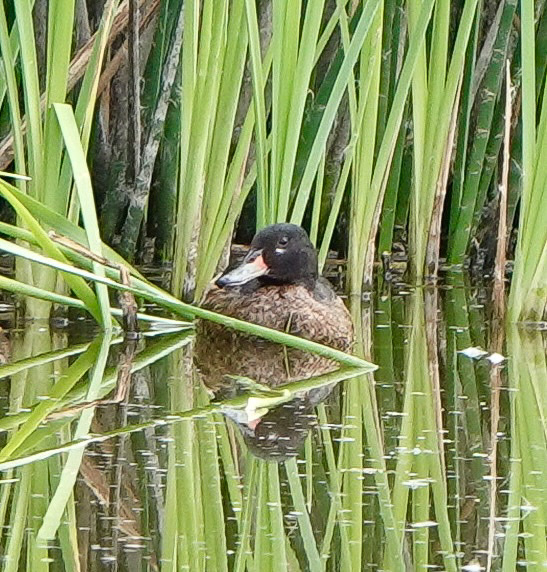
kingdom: Animalia
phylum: Chordata
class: Aves
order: Anseriformes
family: Anatidae
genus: Heteronetta
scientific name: Heteronetta atricapilla
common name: Black-headed duck
